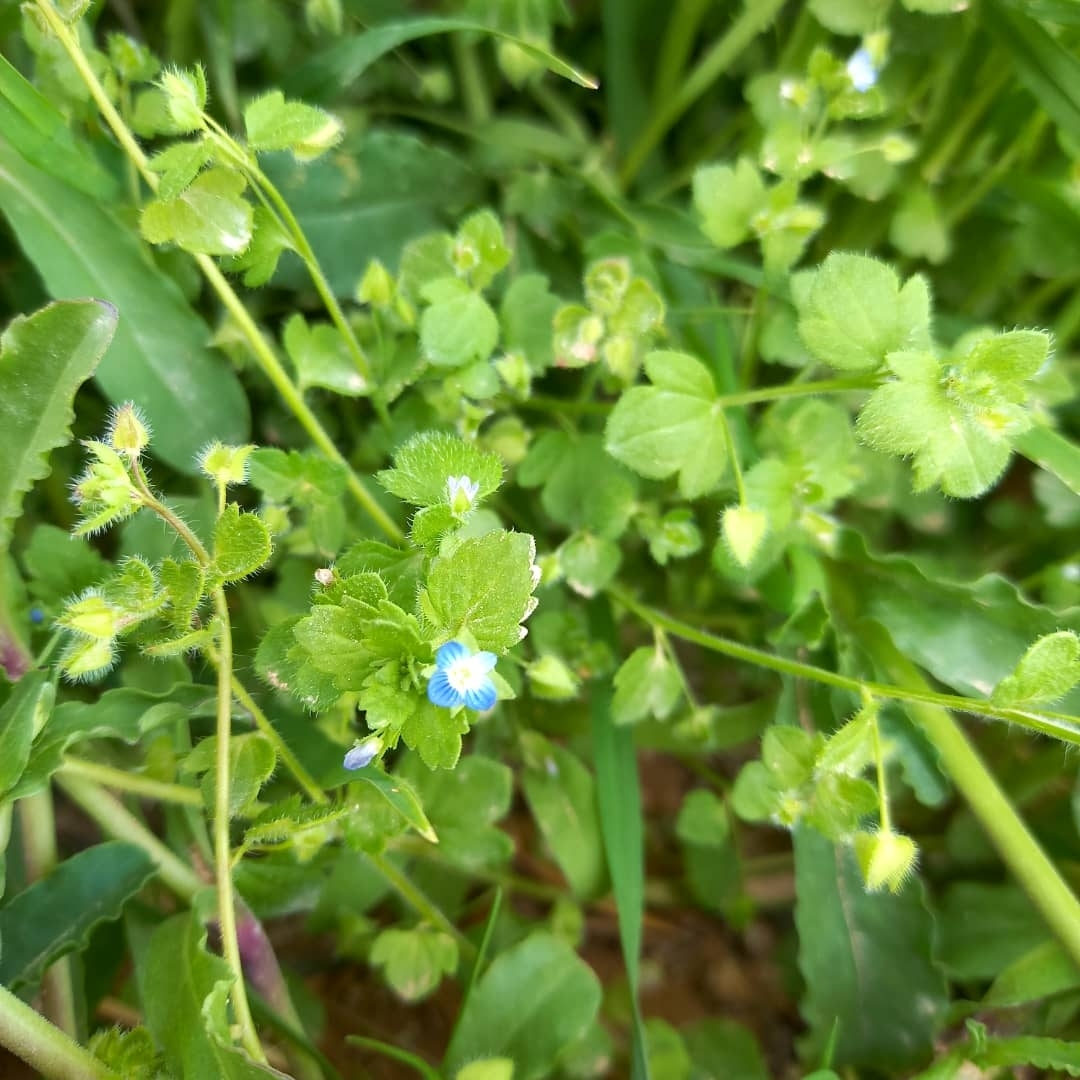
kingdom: Plantae
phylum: Tracheophyta
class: Magnoliopsida
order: Lamiales
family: Plantaginaceae
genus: Veronica
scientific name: Veronica polita
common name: Grey field-speedwell
